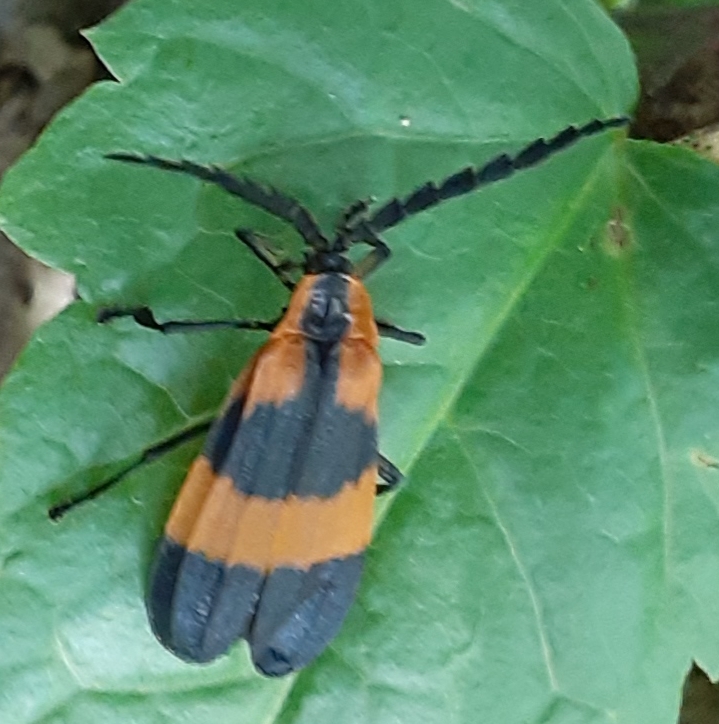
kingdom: Animalia
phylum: Arthropoda
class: Insecta
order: Coleoptera
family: Lycidae
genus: Calopteron
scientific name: Calopteron reticulatum
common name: Banded net-winged beetle
